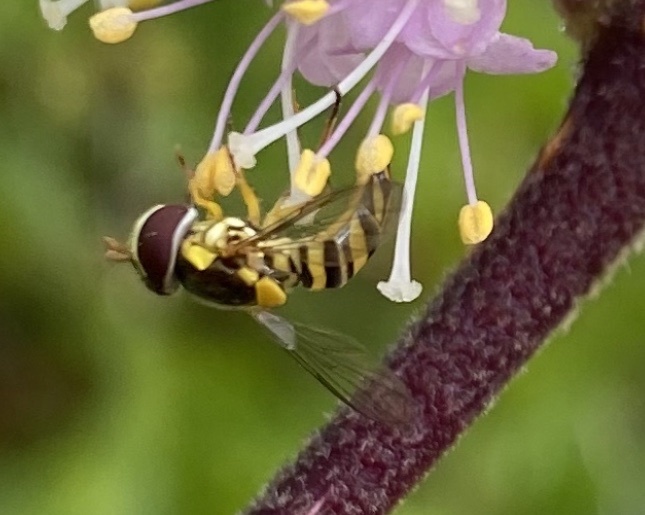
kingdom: Animalia
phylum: Arthropoda
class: Insecta
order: Diptera
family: Syrphidae
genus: Allograpta
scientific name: Allograpta obliqua
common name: Common oblique syrphid
